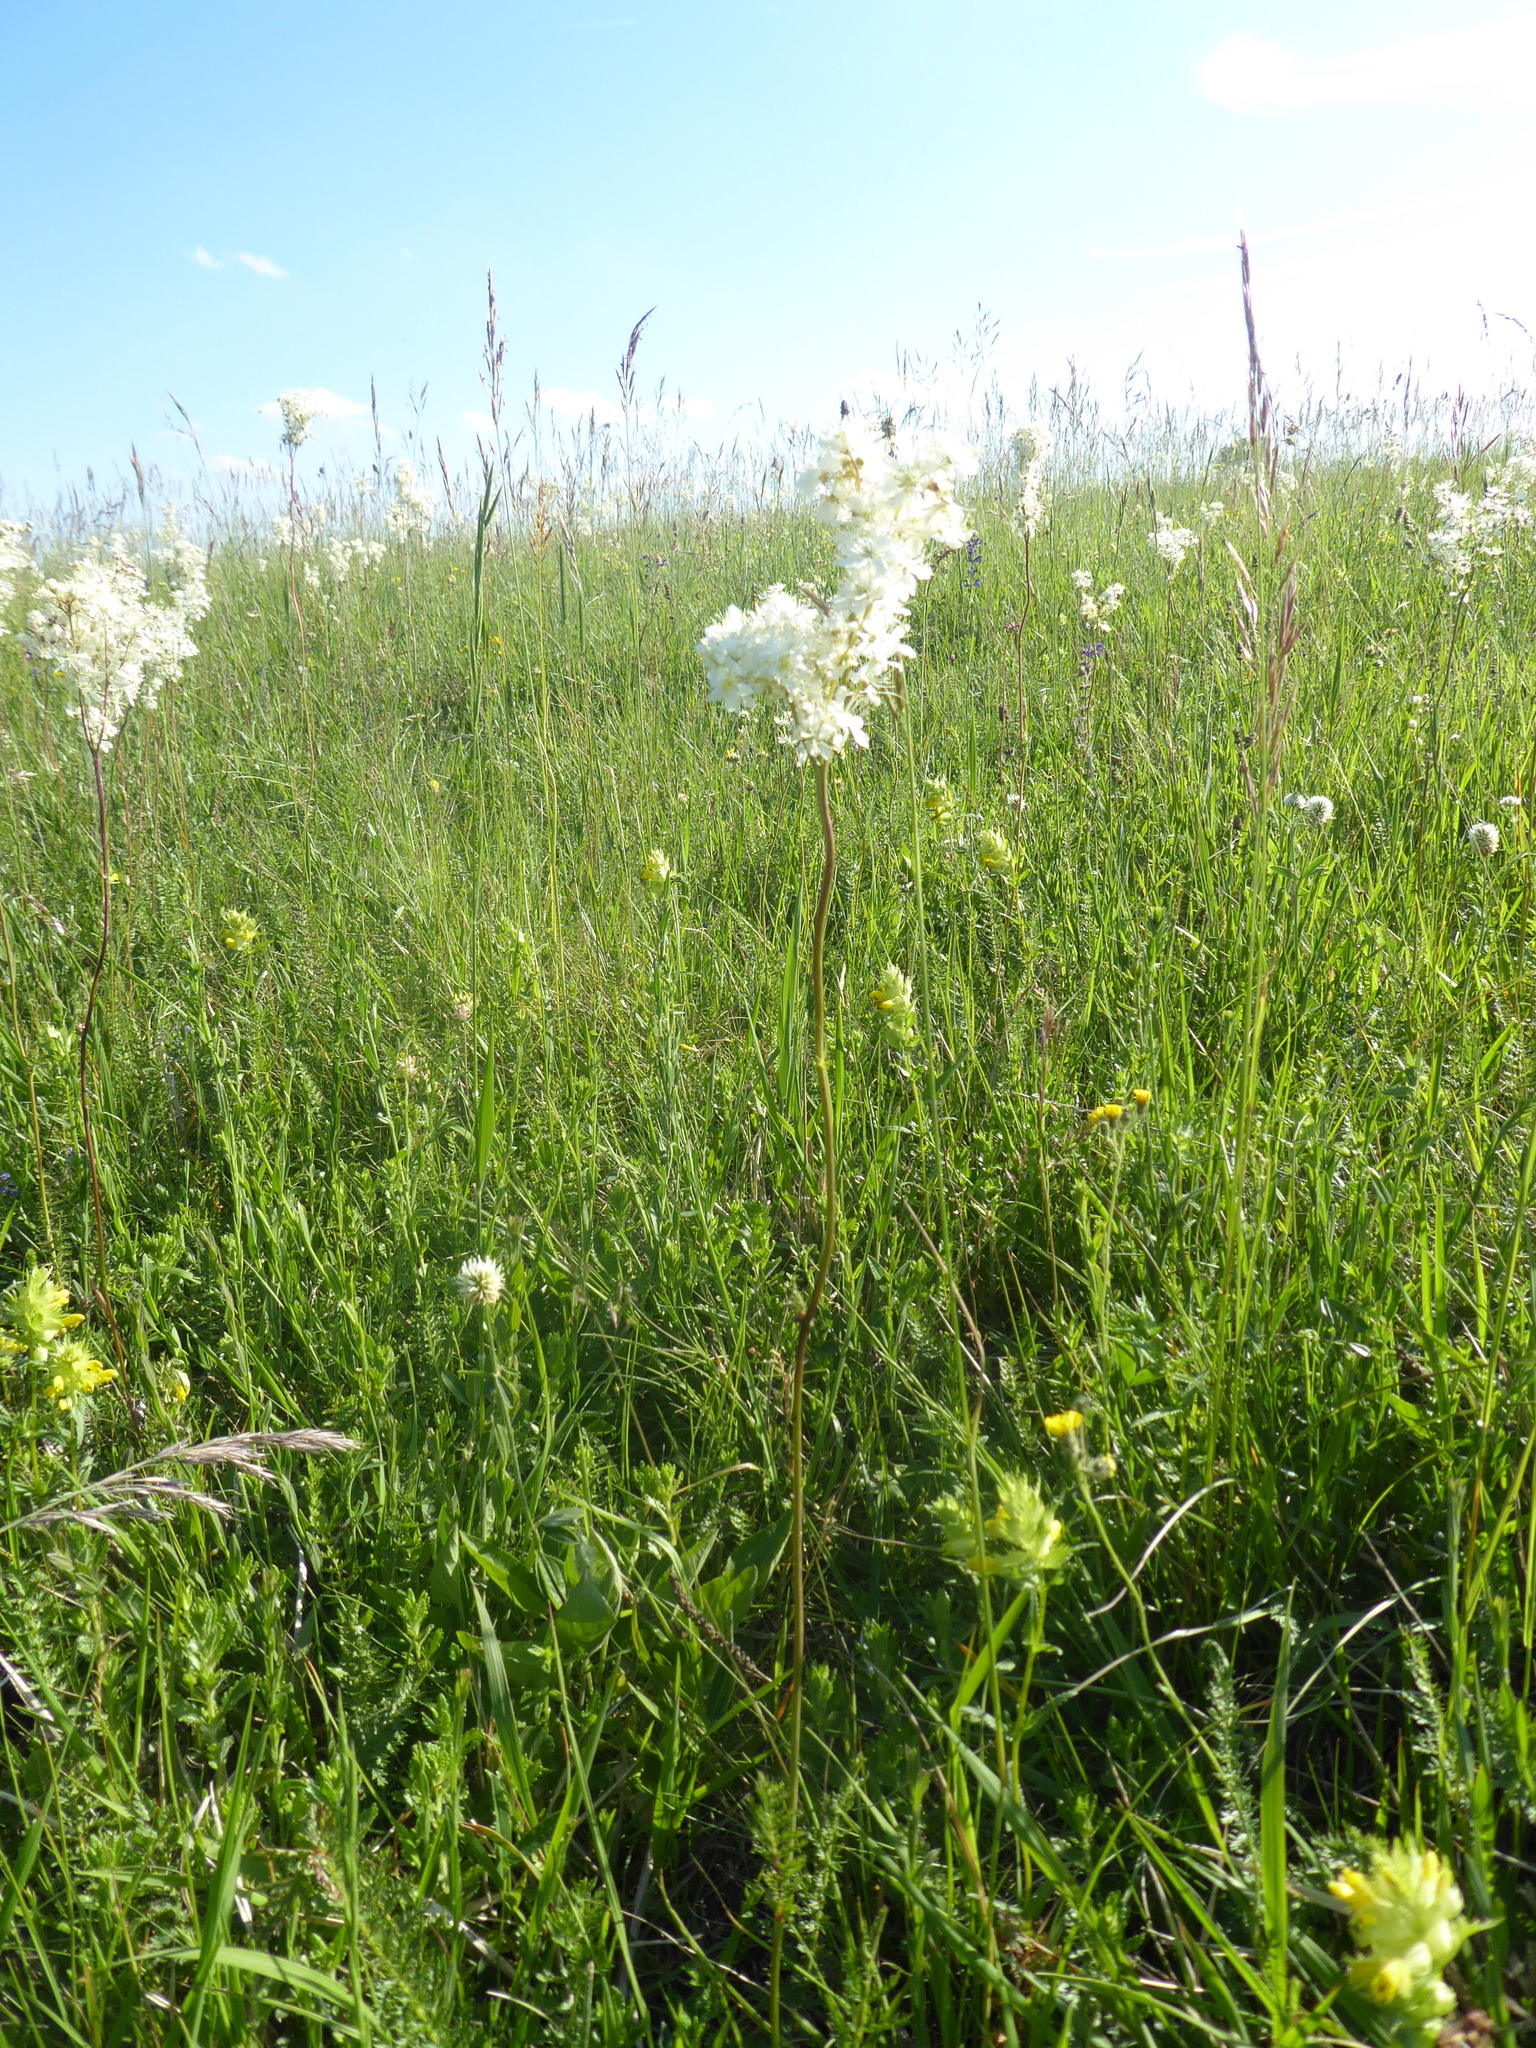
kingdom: Plantae
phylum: Tracheophyta
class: Magnoliopsida
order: Rosales
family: Rosaceae
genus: Filipendula
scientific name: Filipendula vulgaris
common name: Dropwort
